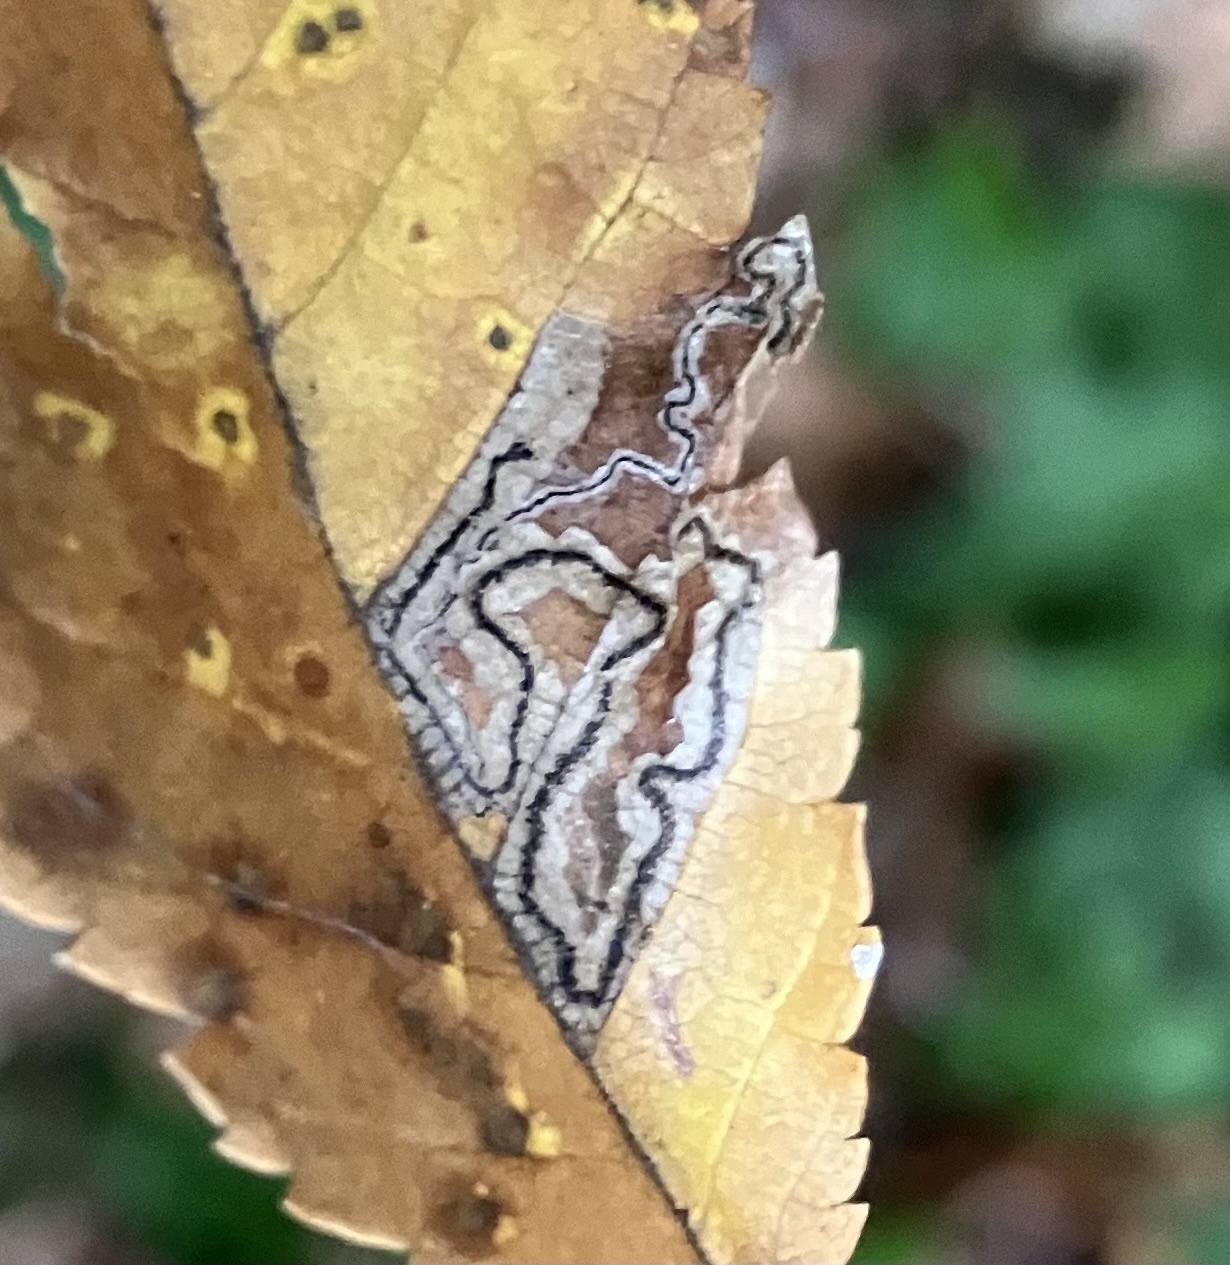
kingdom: Animalia
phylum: Arthropoda
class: Insecta
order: Lepidoptera
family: Nepticulidae
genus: Stigmella
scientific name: Stigmella apicialbella
